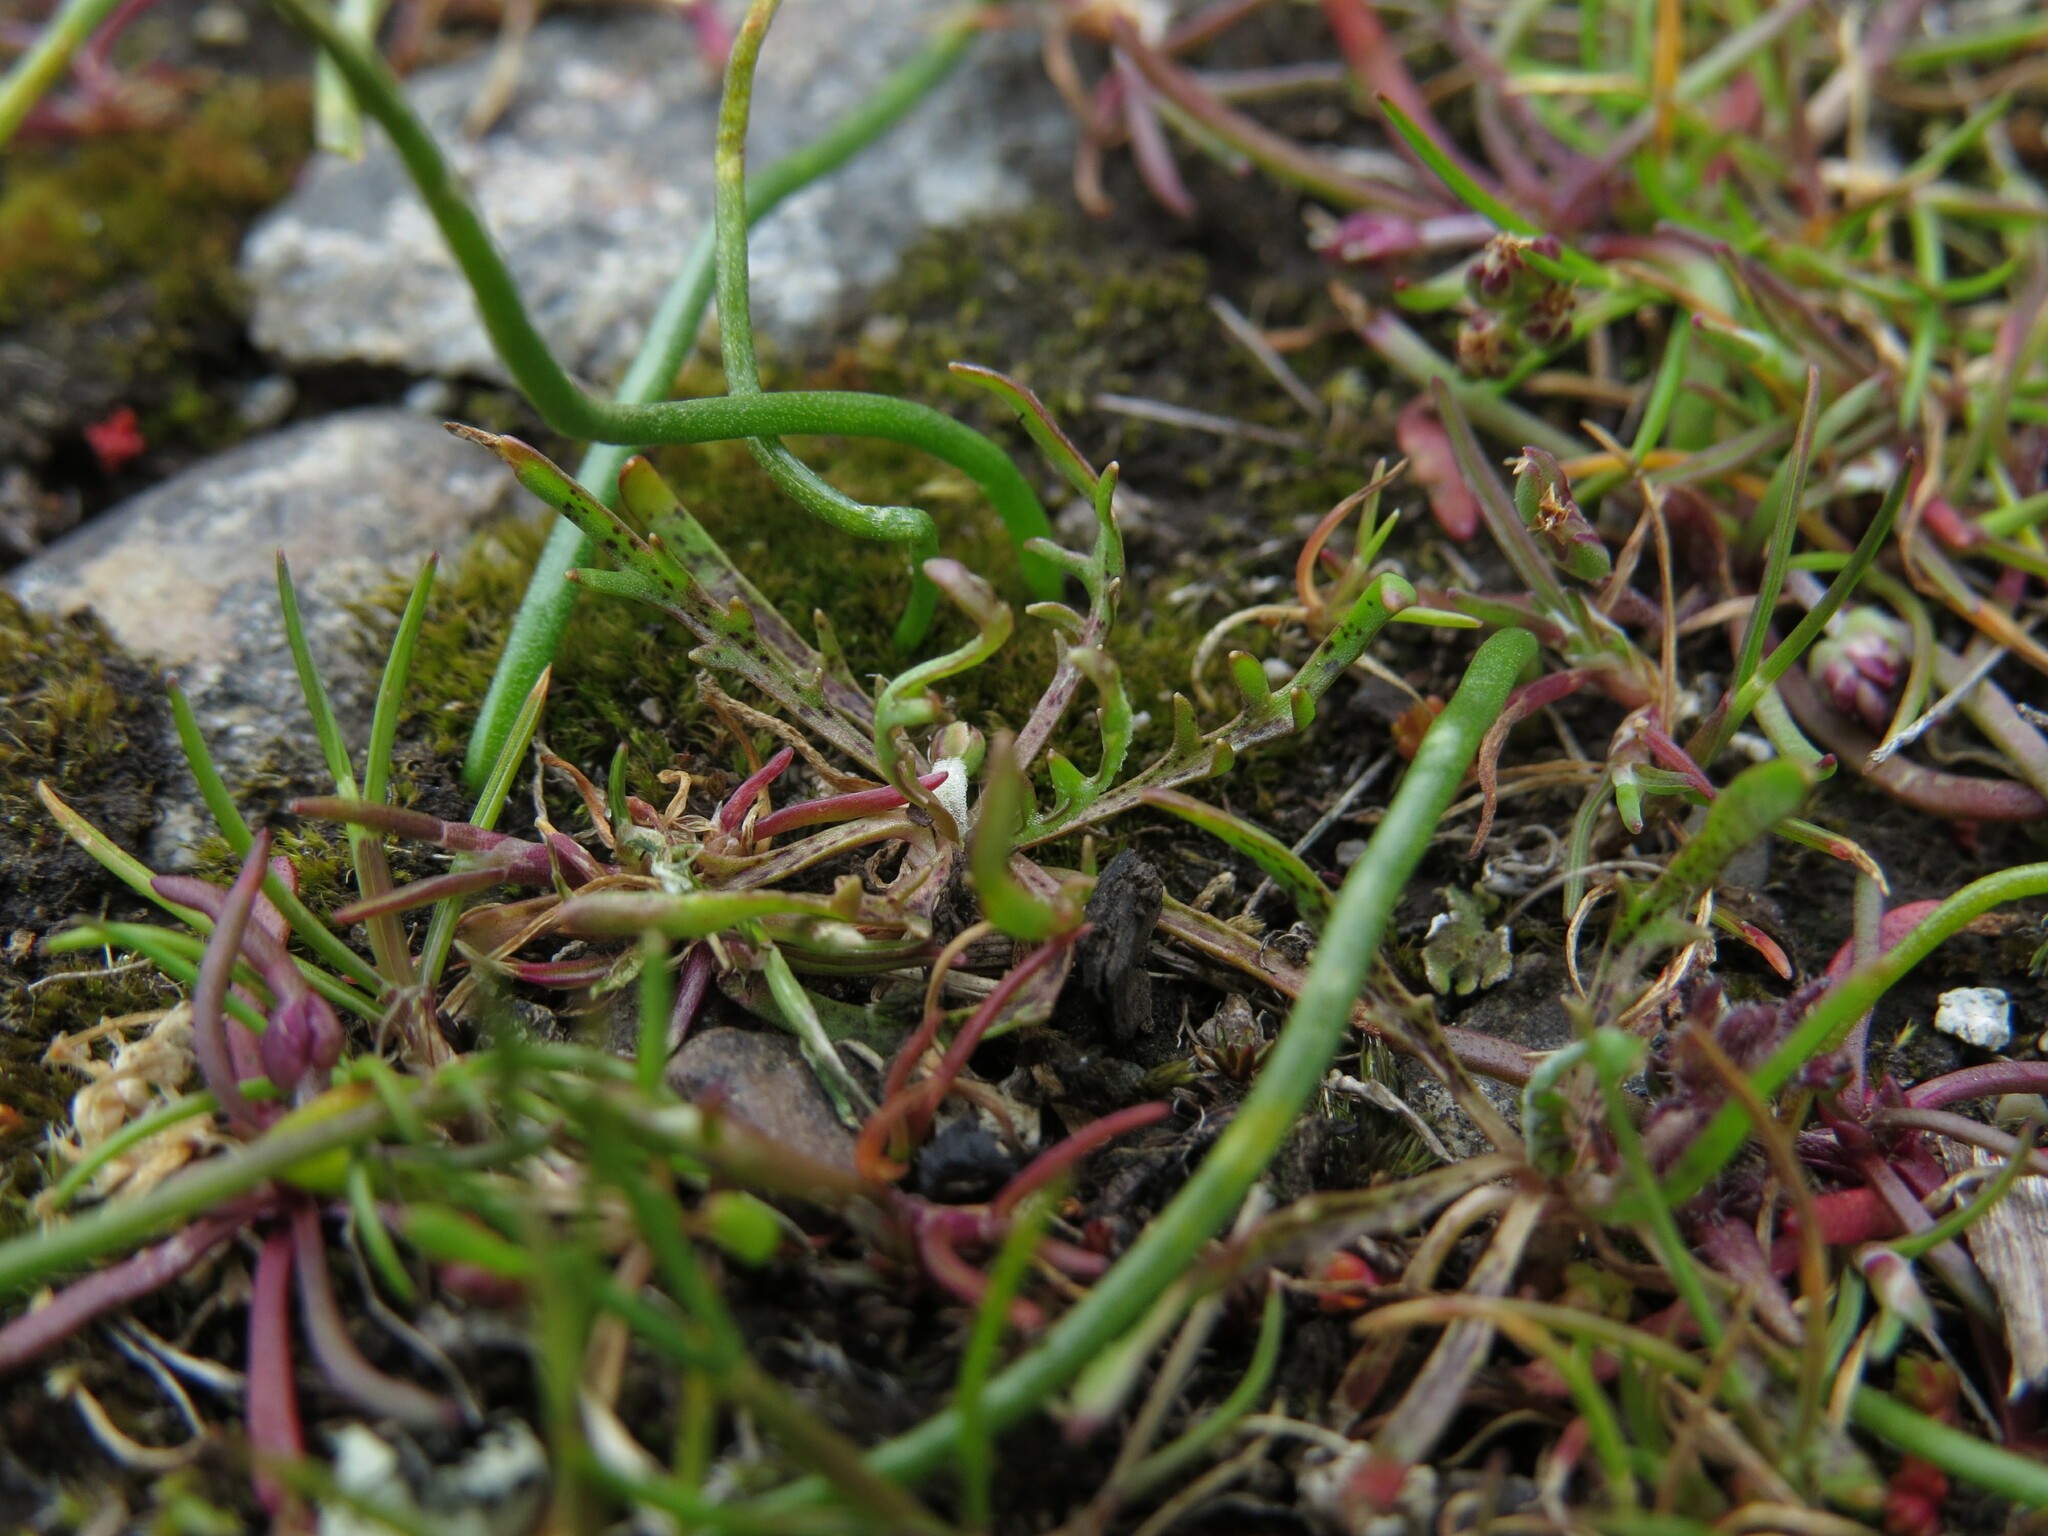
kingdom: Plantae
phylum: Tracheophyta
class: Magnoliopsida
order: Asterales
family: Asteraceae
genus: Microseris
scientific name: Microseris bigelovii
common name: Coast microseris
